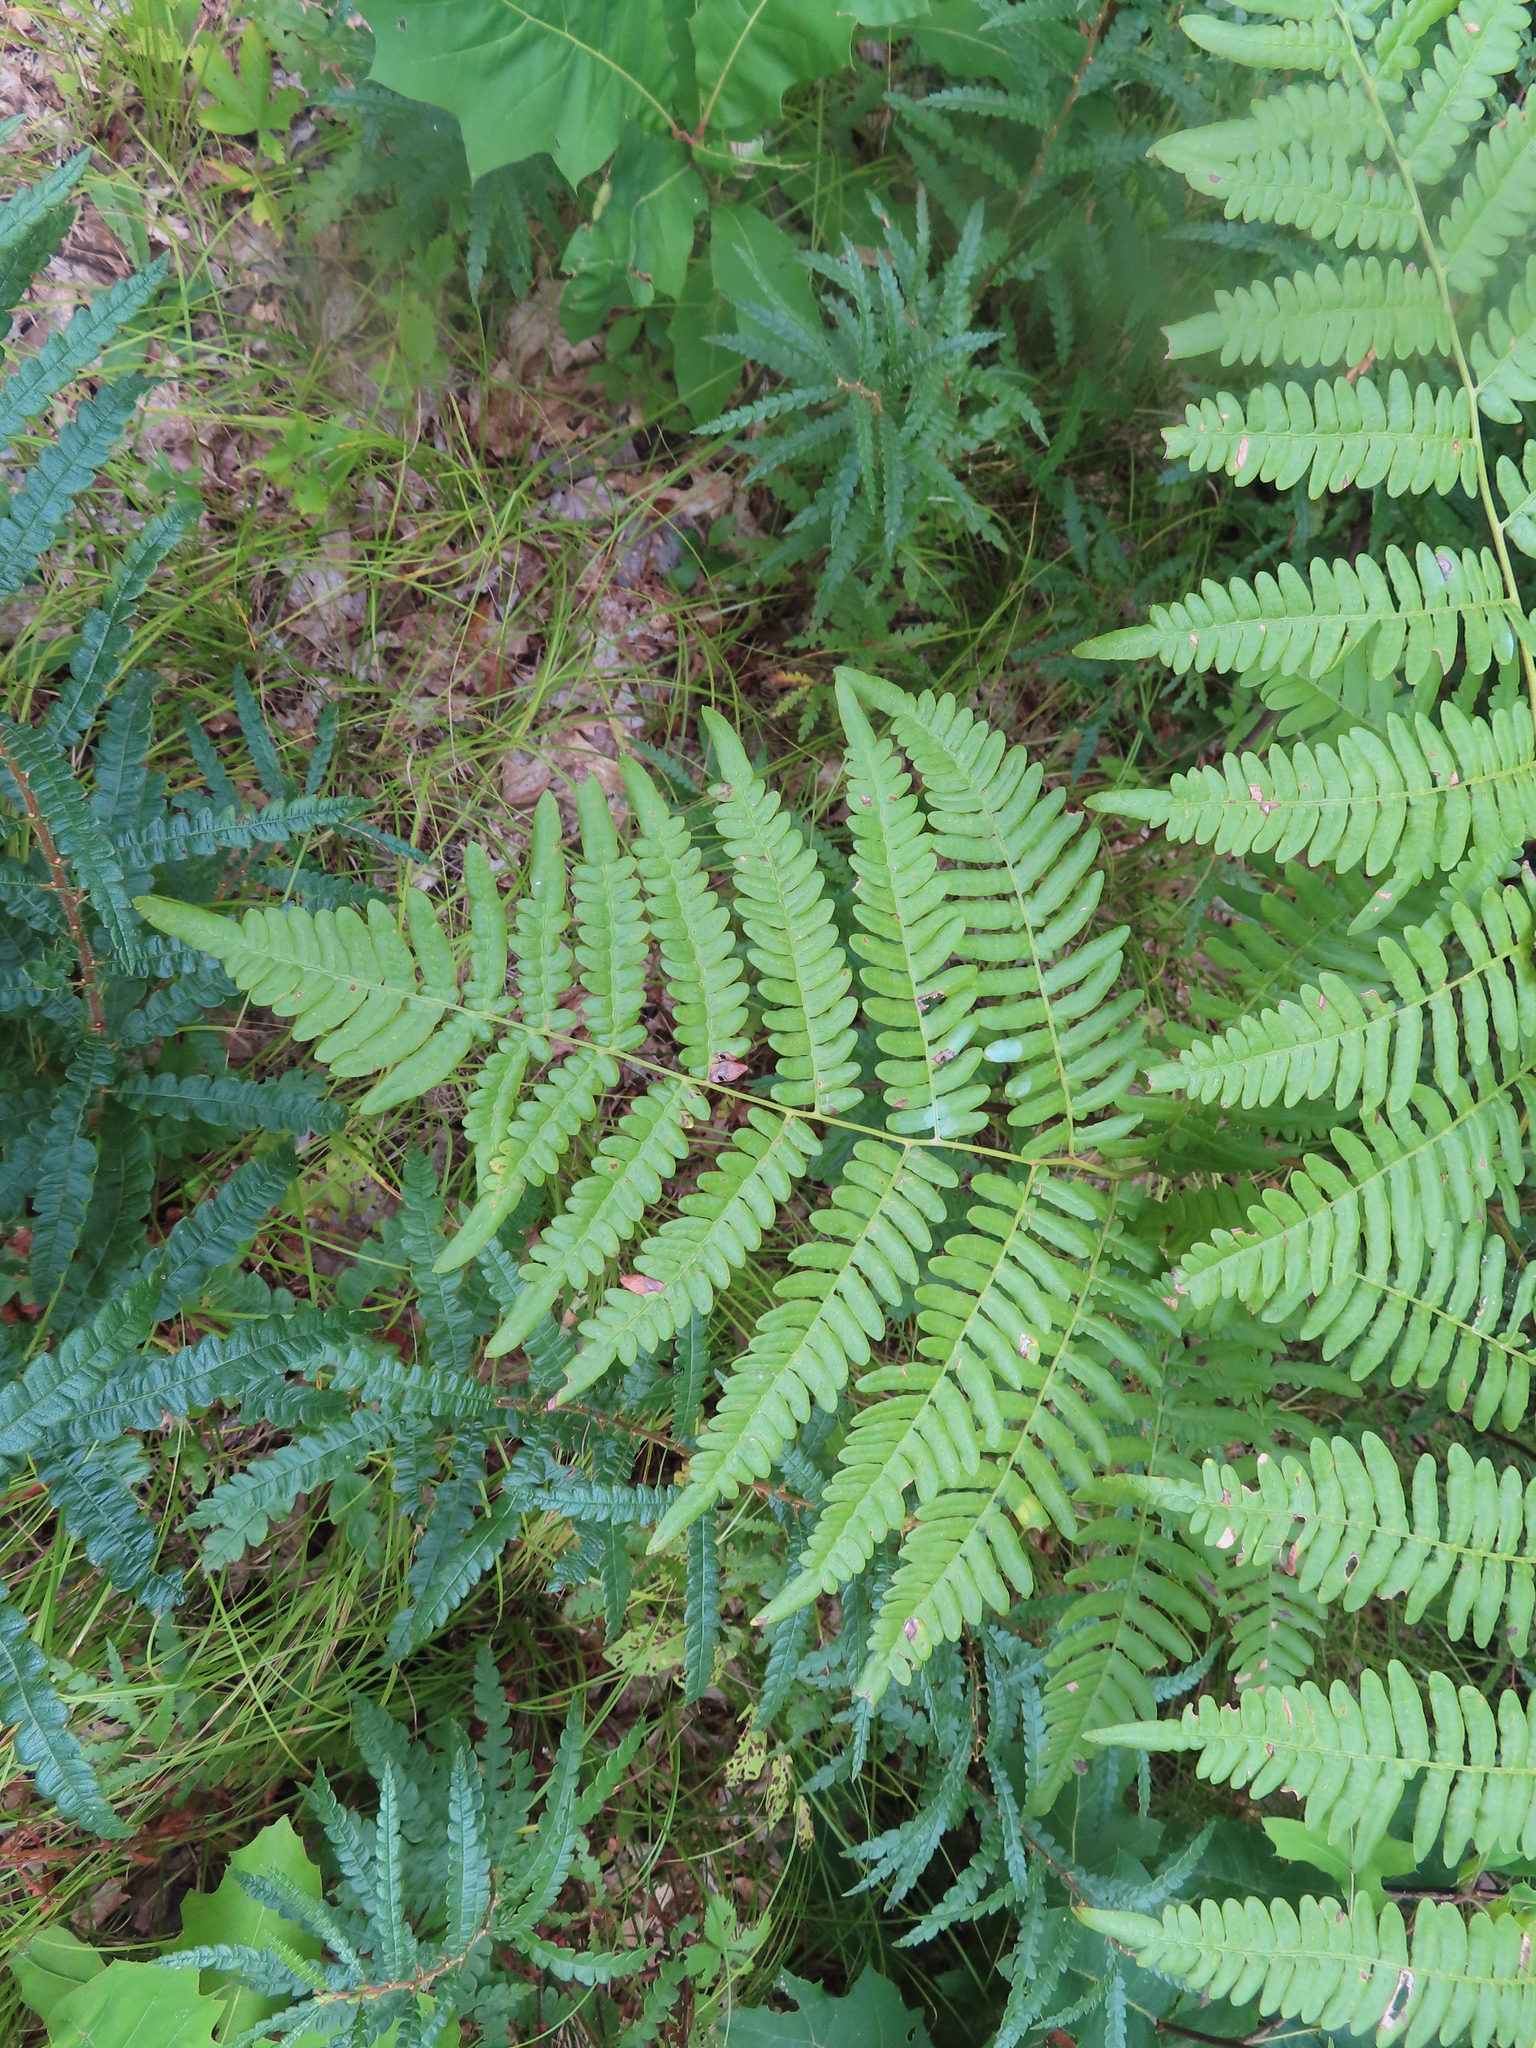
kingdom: Plantae
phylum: Tracheophyta
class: Polypodiopsida
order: Polypodiales
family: Dennstaedtiaceae
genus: Pteridium
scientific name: Pteridium aquilinum
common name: Bracken
